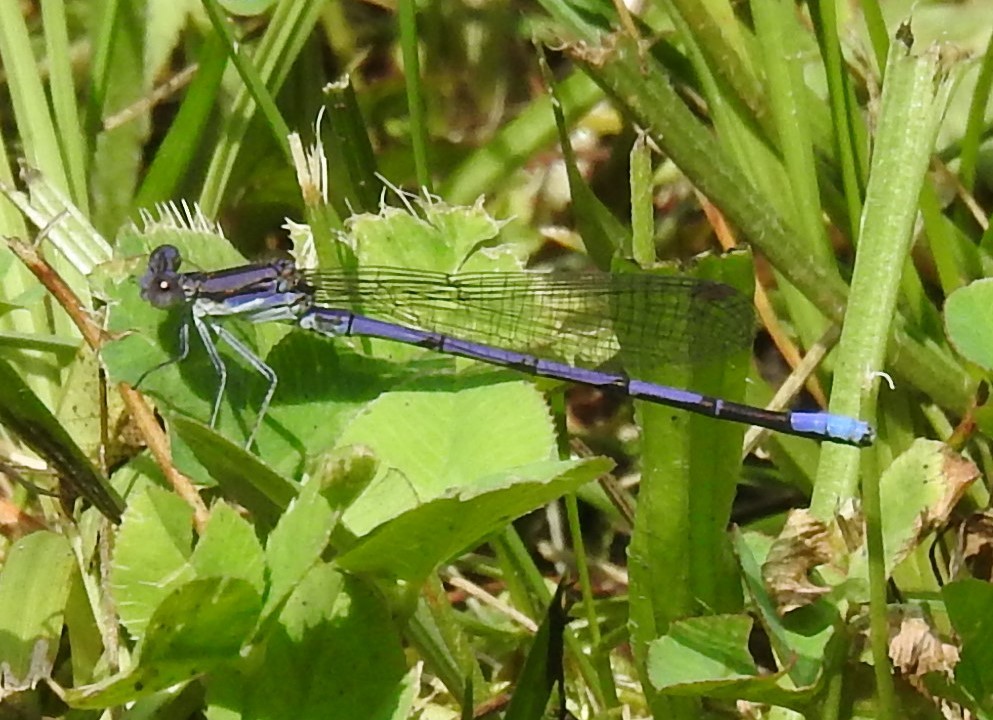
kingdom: Animalia
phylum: Arthropoda
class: Insecta
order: Odonata
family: Coenagrionidae
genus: Argia
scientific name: Argia fumipennis
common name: Variable dancer
